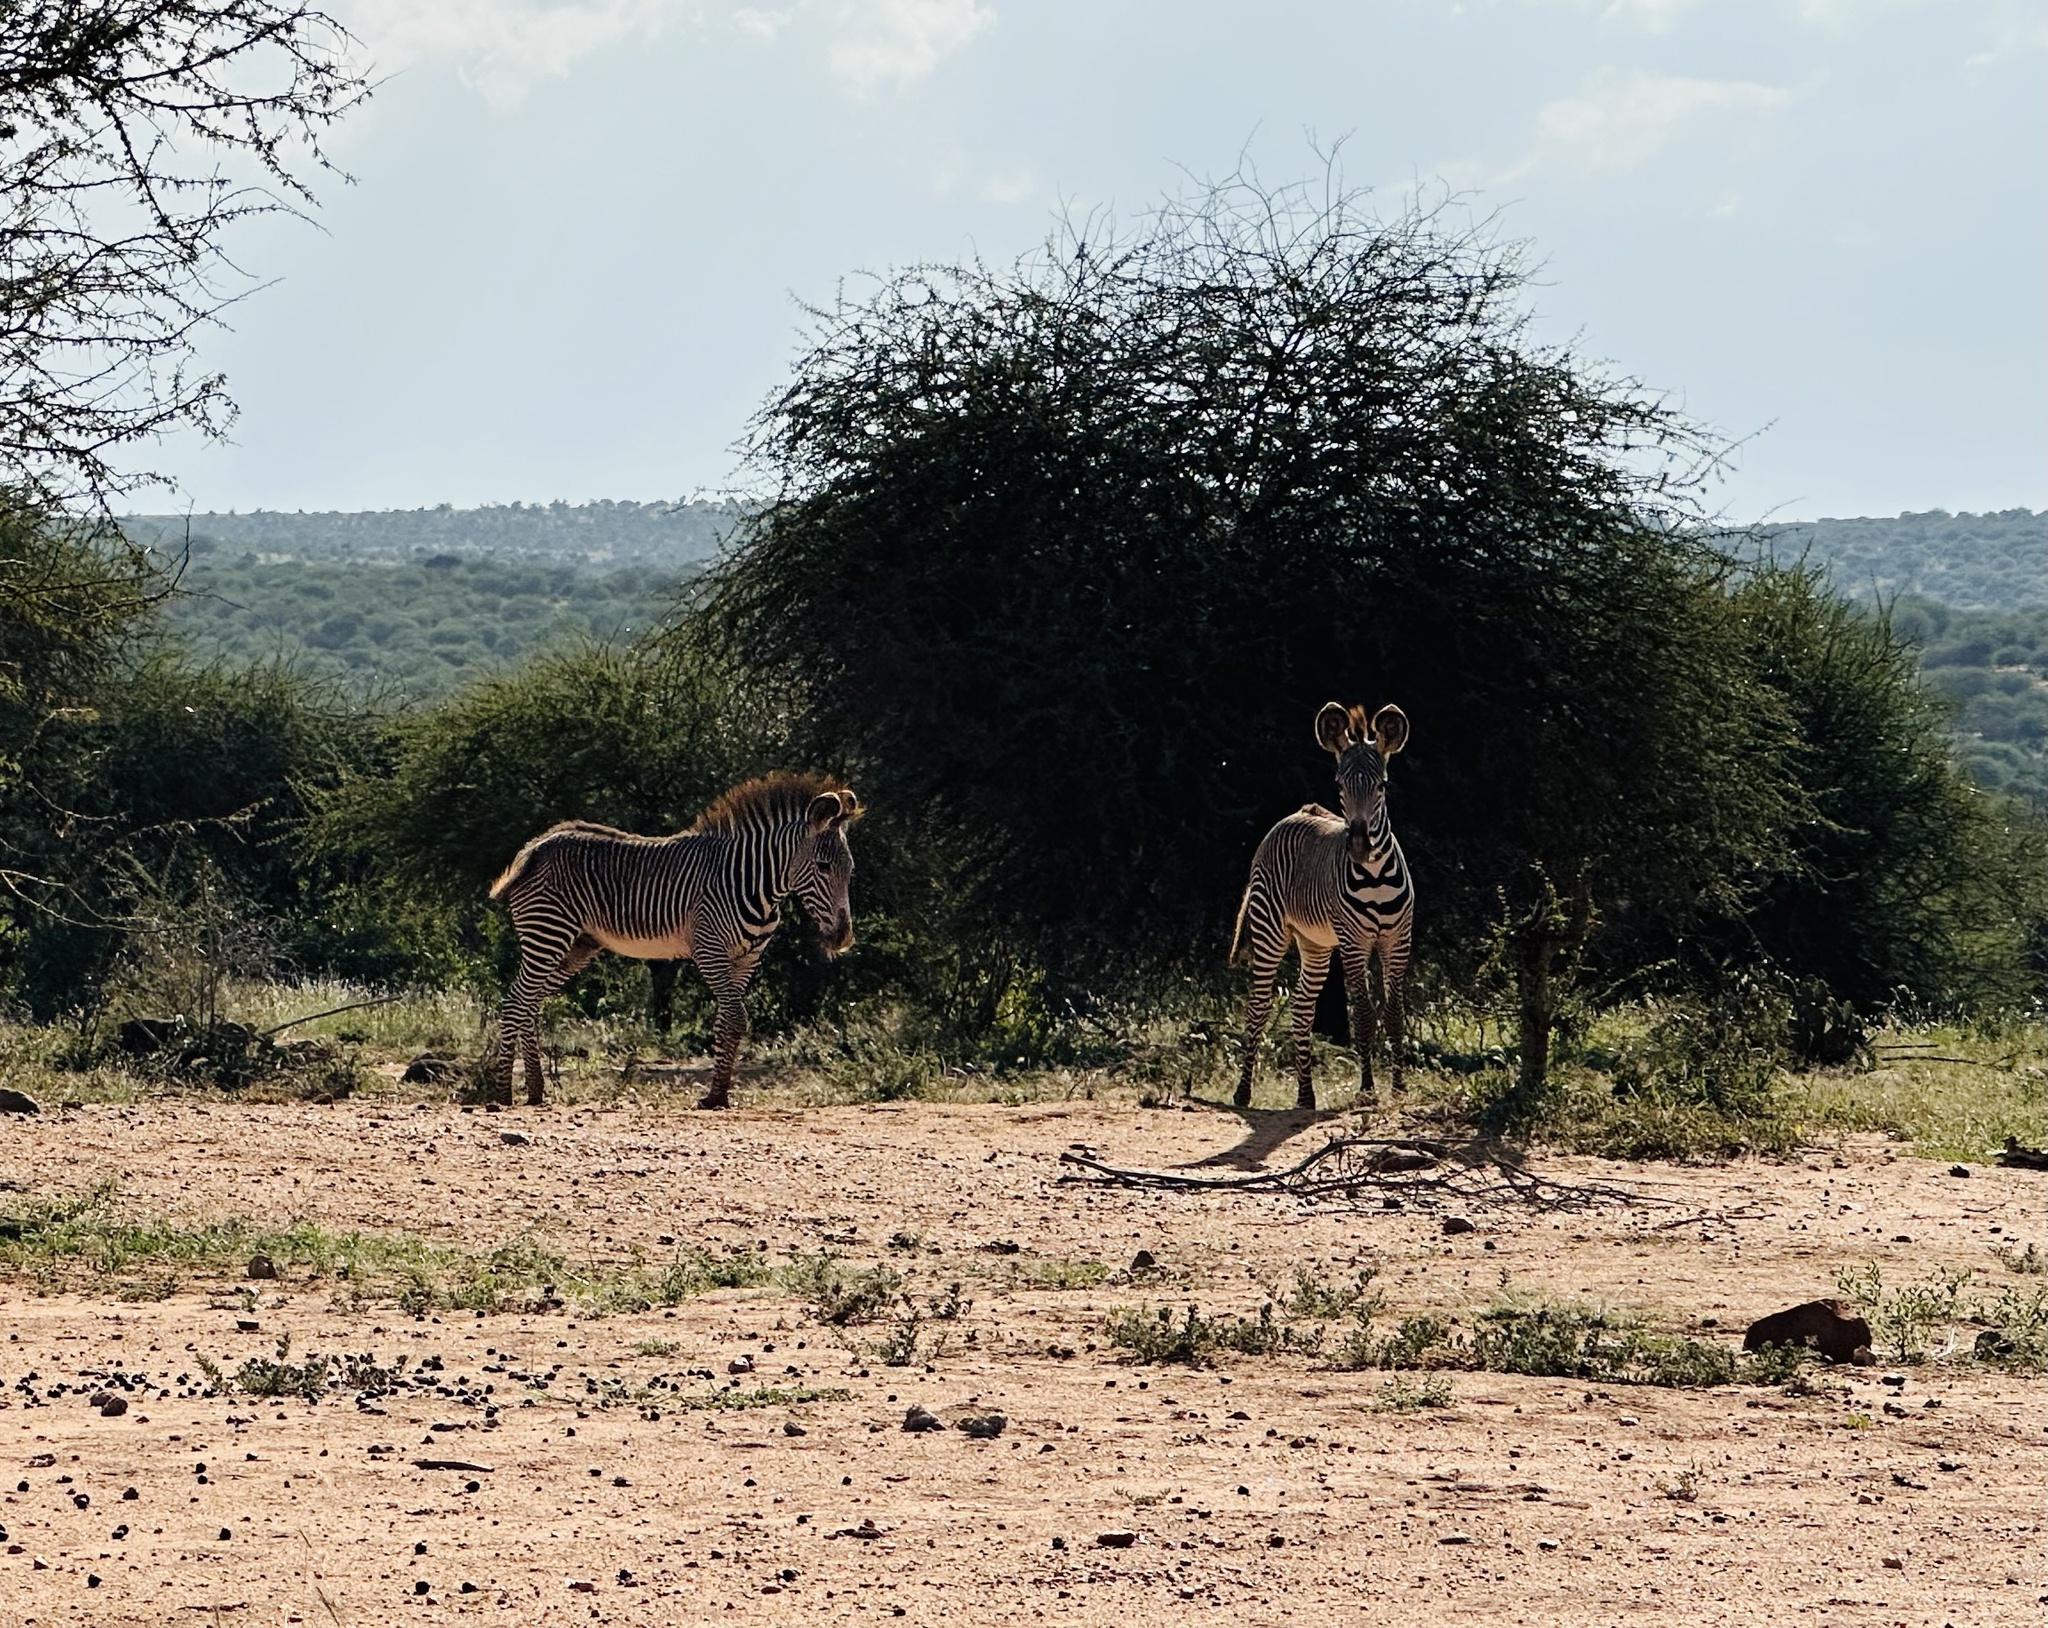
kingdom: Animalia
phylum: Chordata
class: Mammalia
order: Perissodactyla
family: Equidae
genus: Equus
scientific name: Equus grevyi
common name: Grevy's zebra
